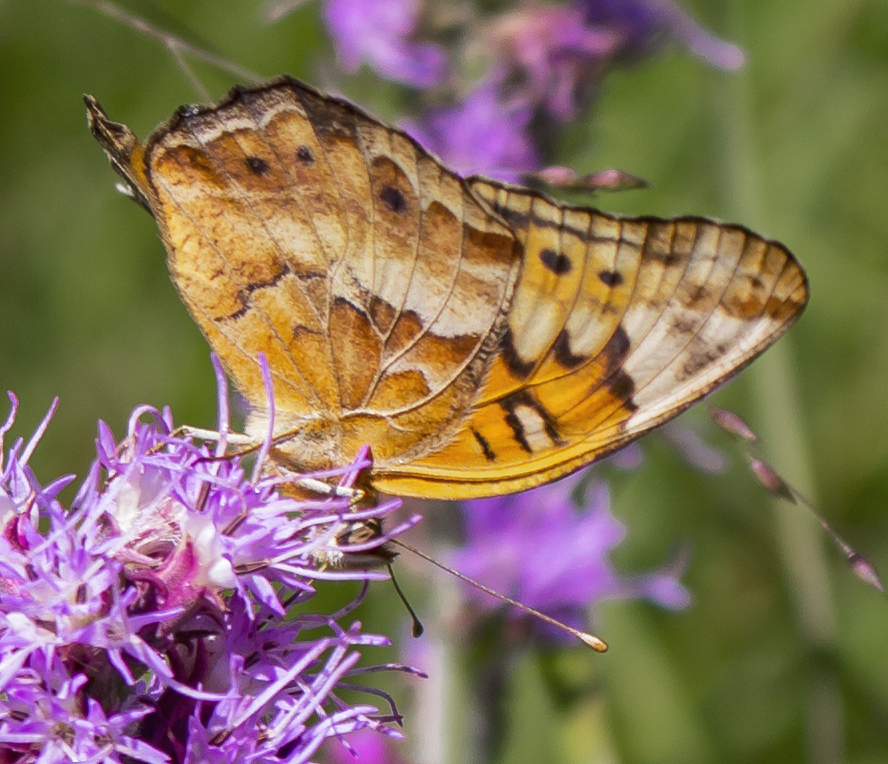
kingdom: Animalia
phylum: Arthropoda
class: Insecta
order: Lepidoptera
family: Nymphalidae
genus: Euptoieta
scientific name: Euptoieta claudia
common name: Variegated fritillary
